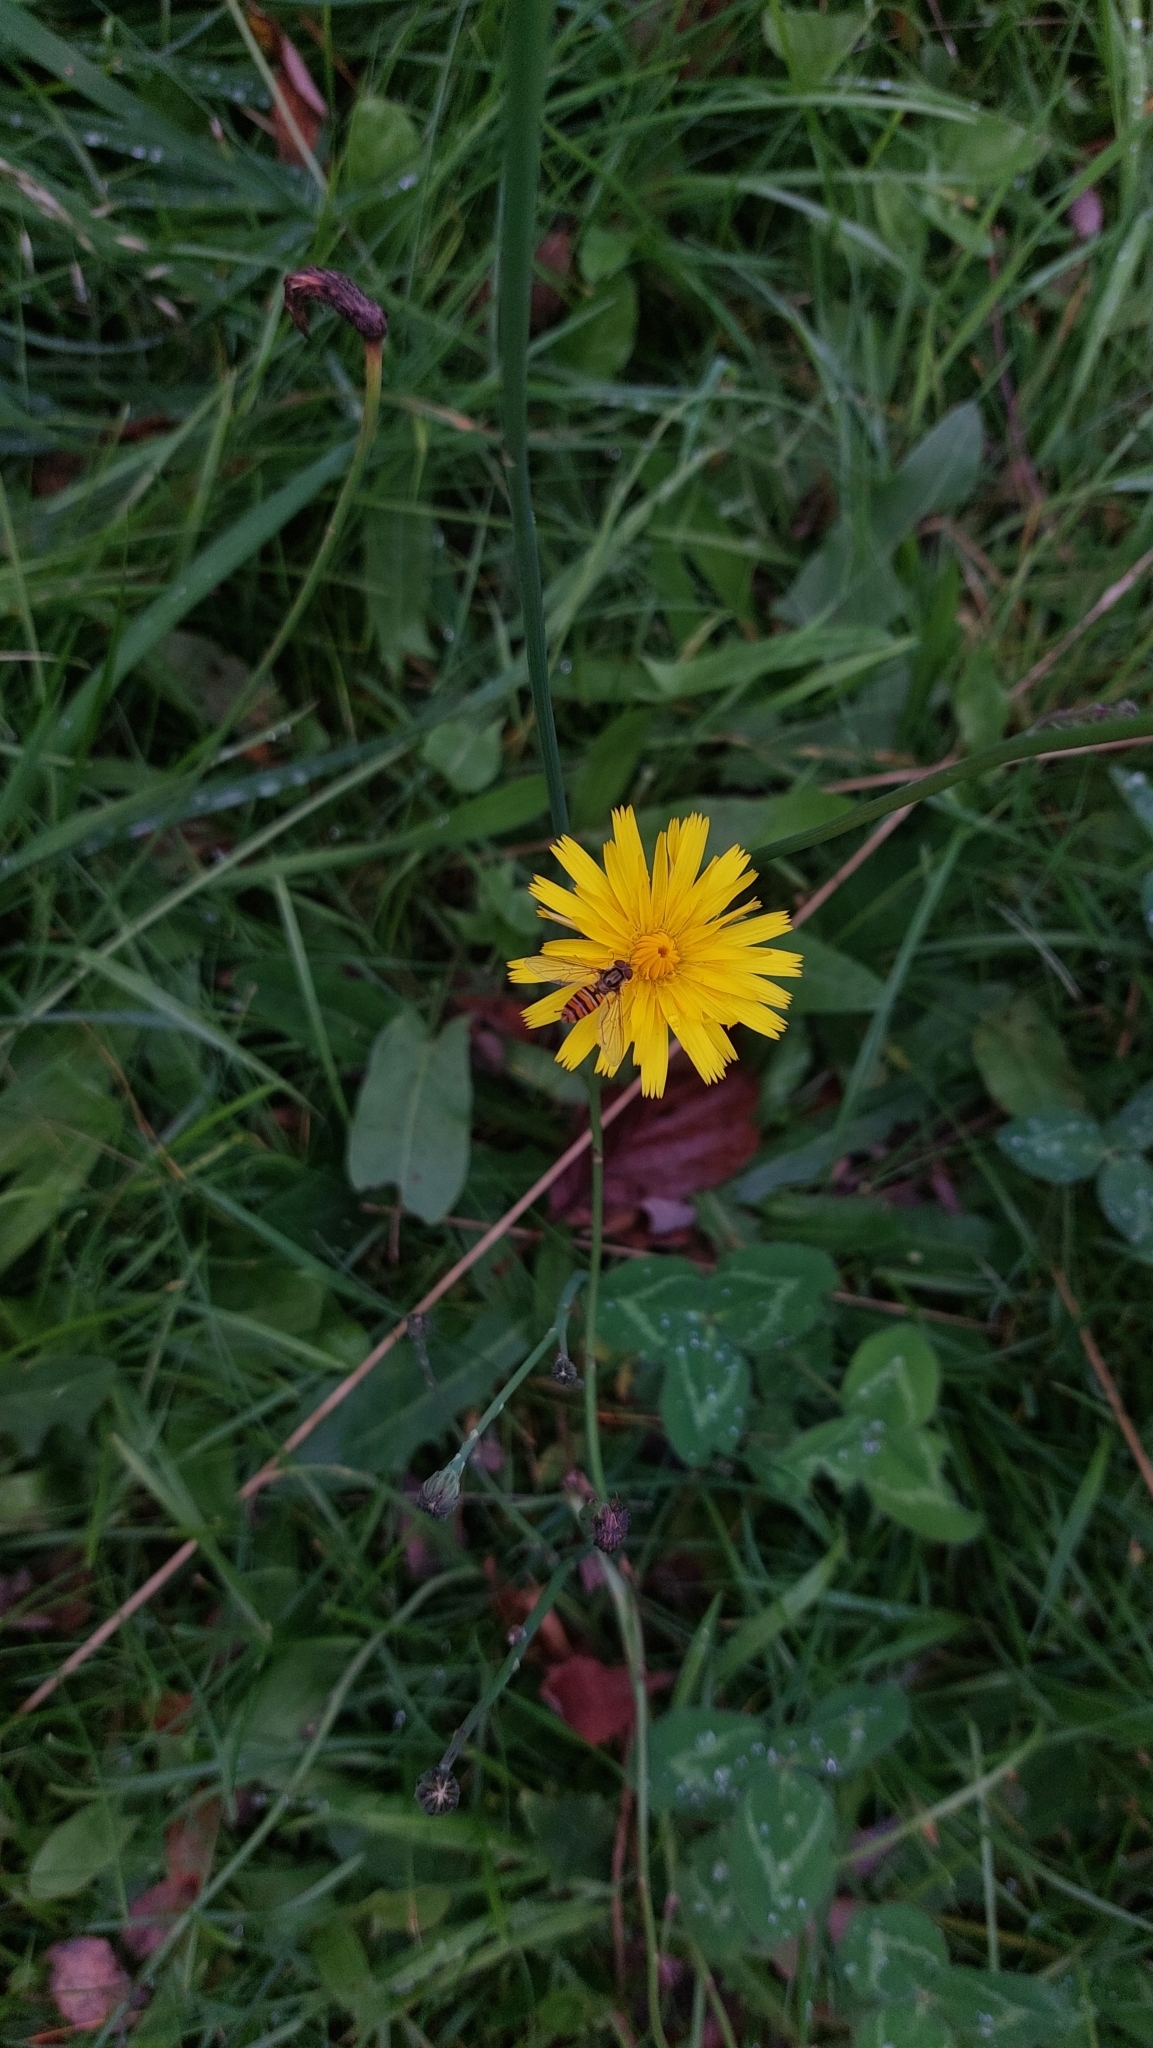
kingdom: Animalia
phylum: Arthropoda
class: Insecta
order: Diptera
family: Syrphidae
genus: Episyrphus
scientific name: Episyrphus balteatus
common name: Marmalade hoverfly
